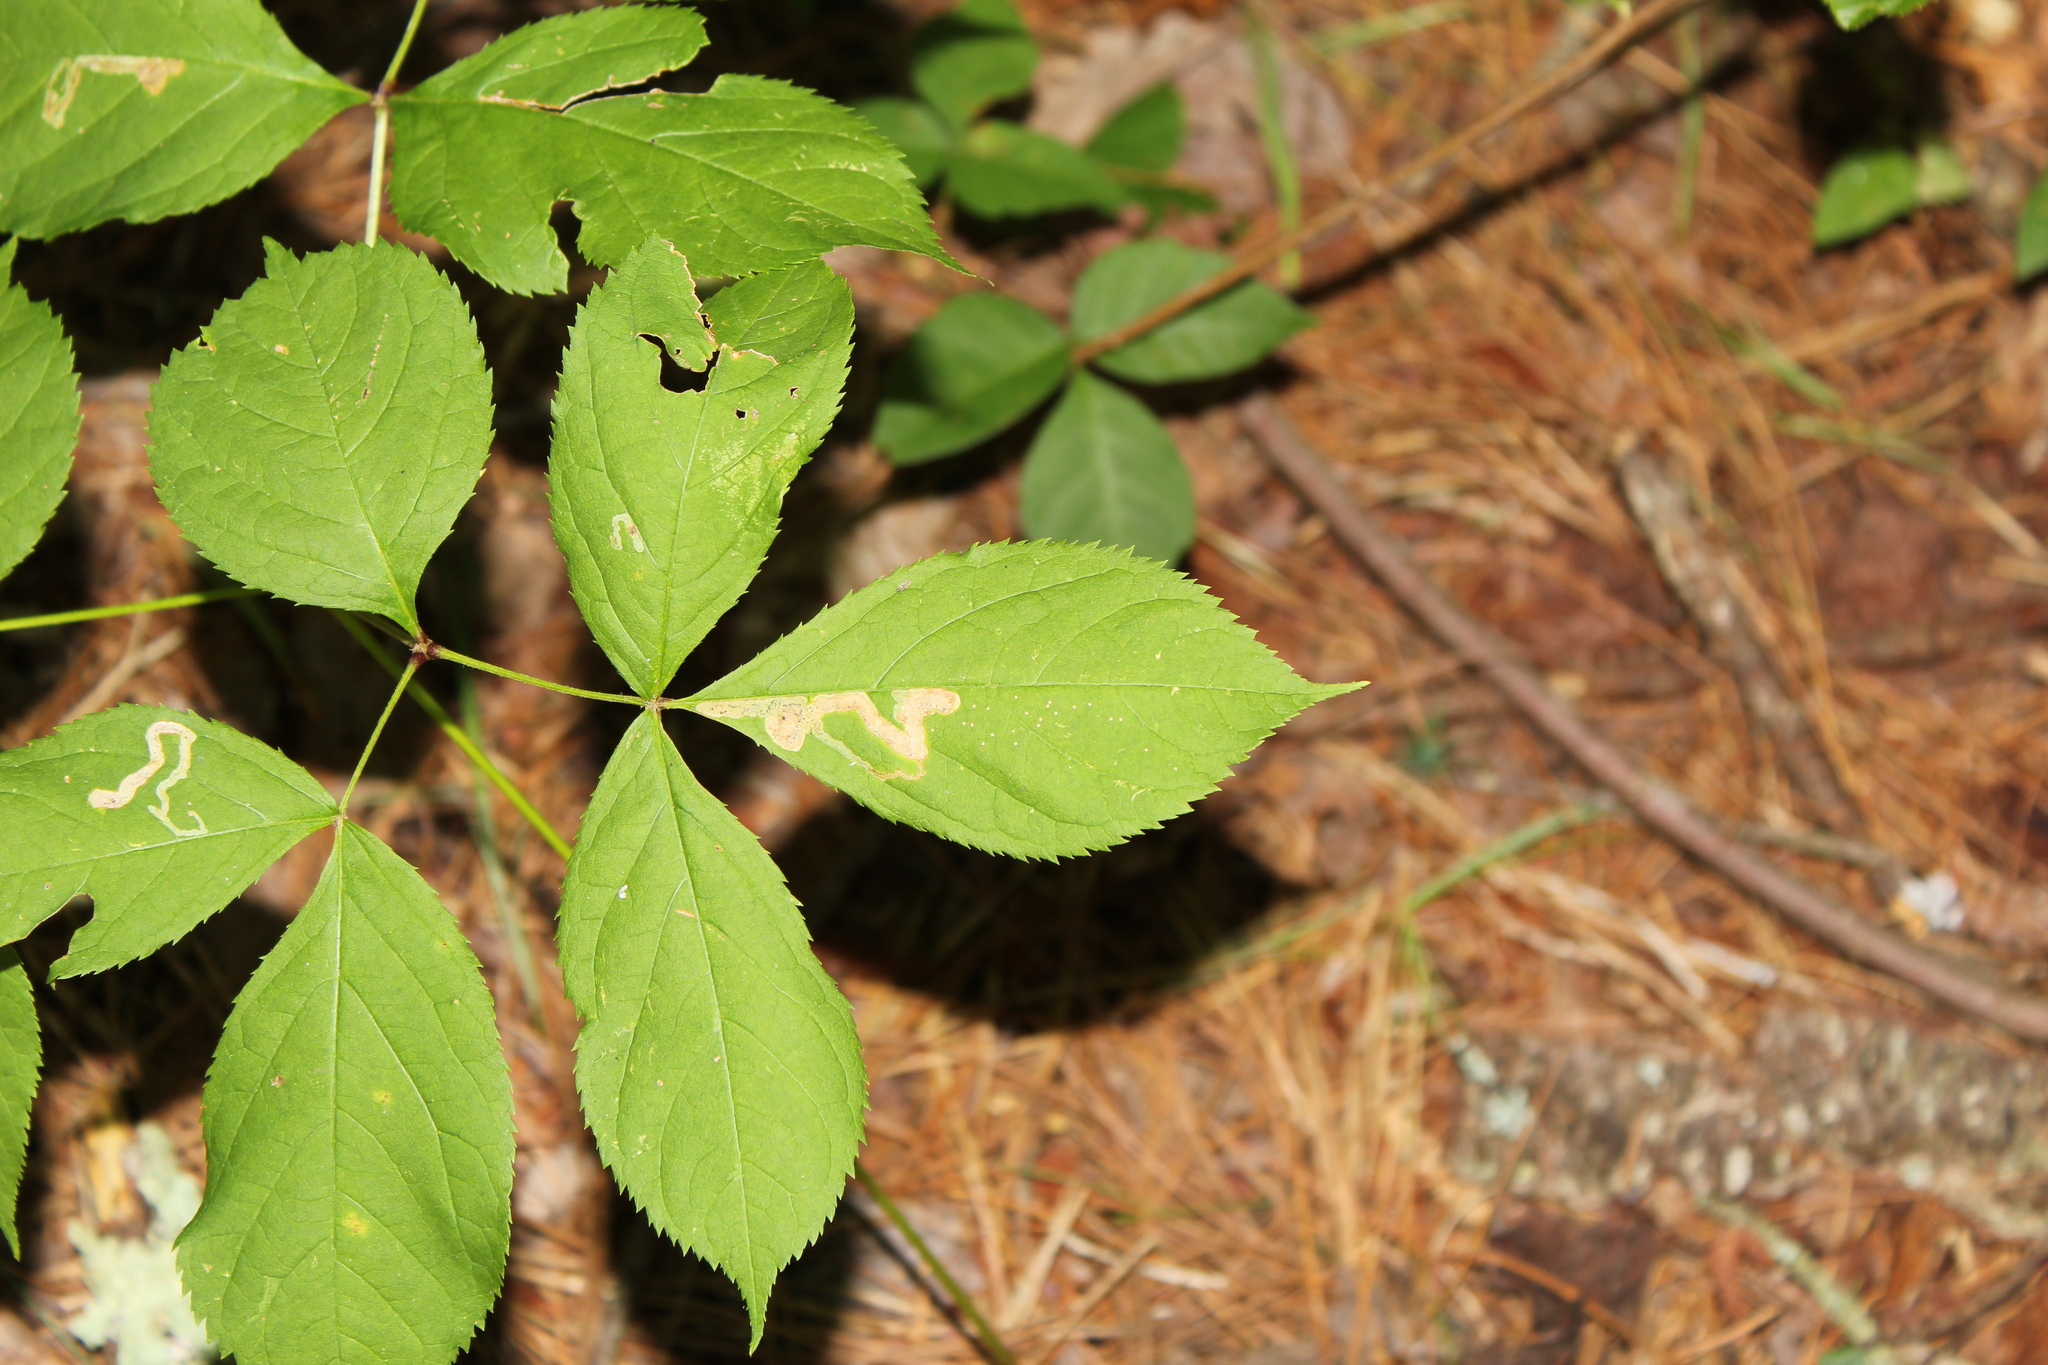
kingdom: Animalia
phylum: Arthropoda
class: Insecta
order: Diptera
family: Agromyzidae
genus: Phytomyza
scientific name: Phytomyza aralivora
